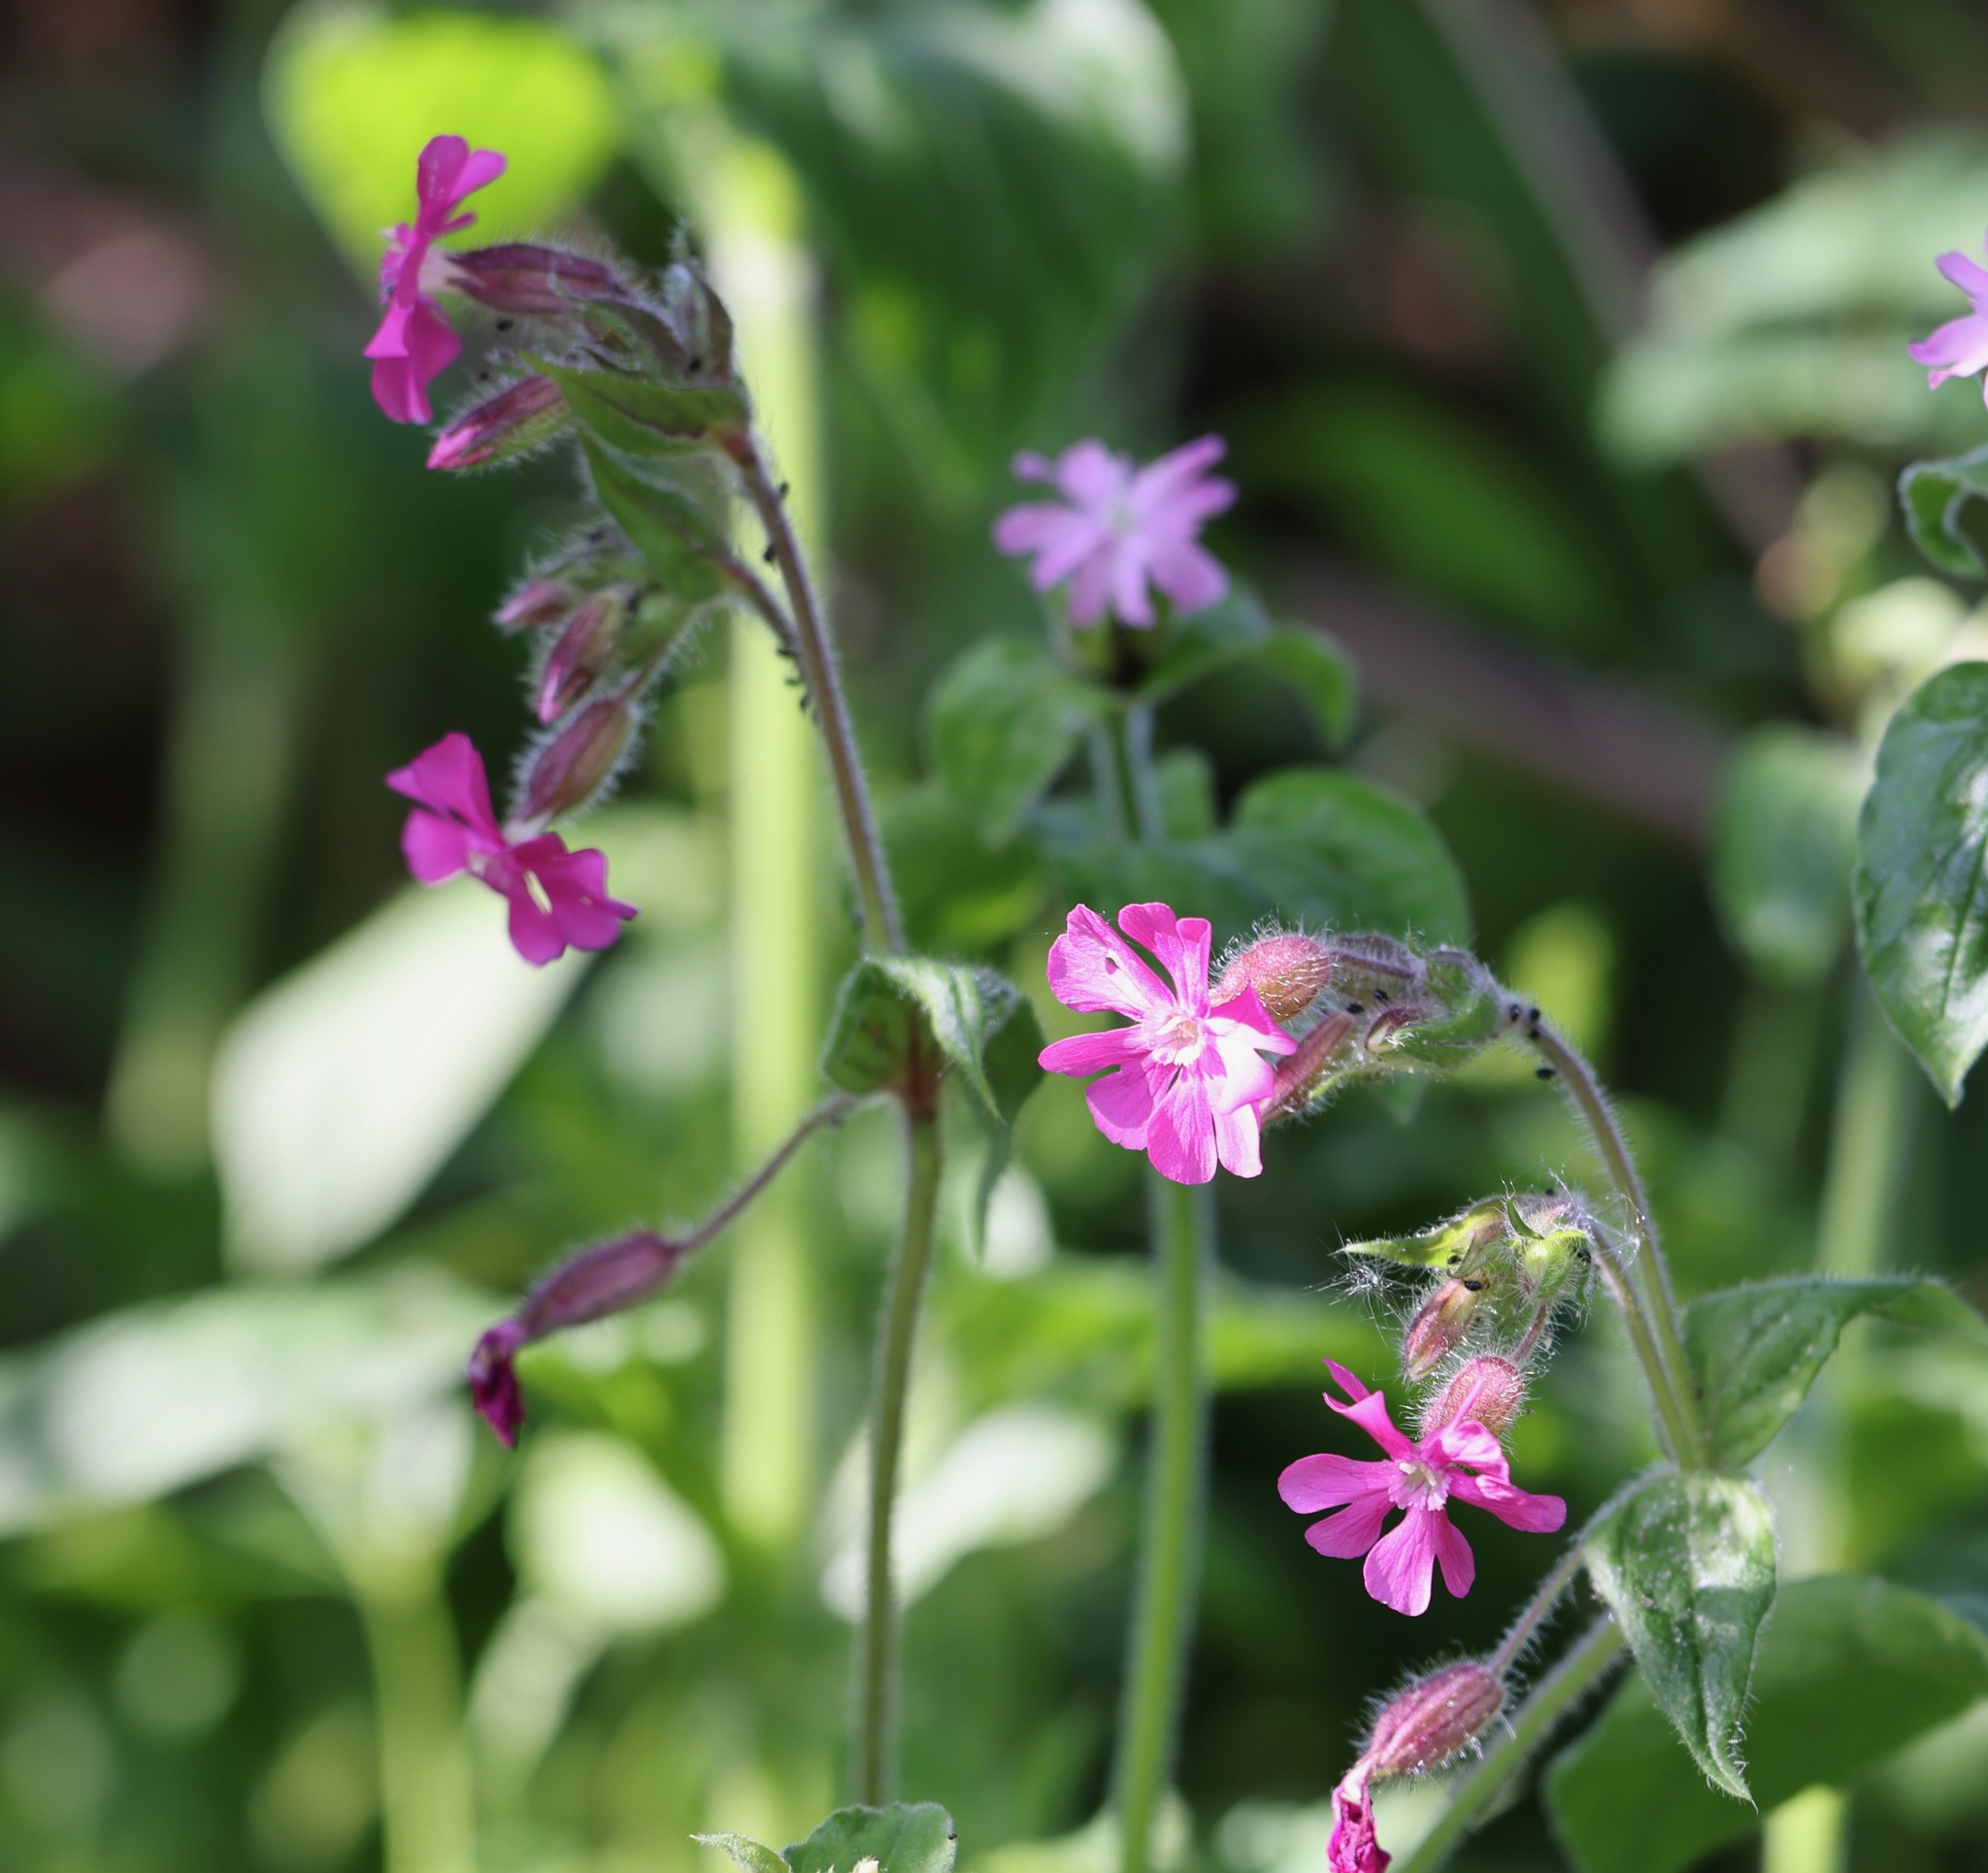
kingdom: Plantae
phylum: Tracheophyta
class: Magnoliopsida
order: Caryophyllales
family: Caryophyllaceae
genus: Silene
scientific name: Silene dioica
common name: Red campion
